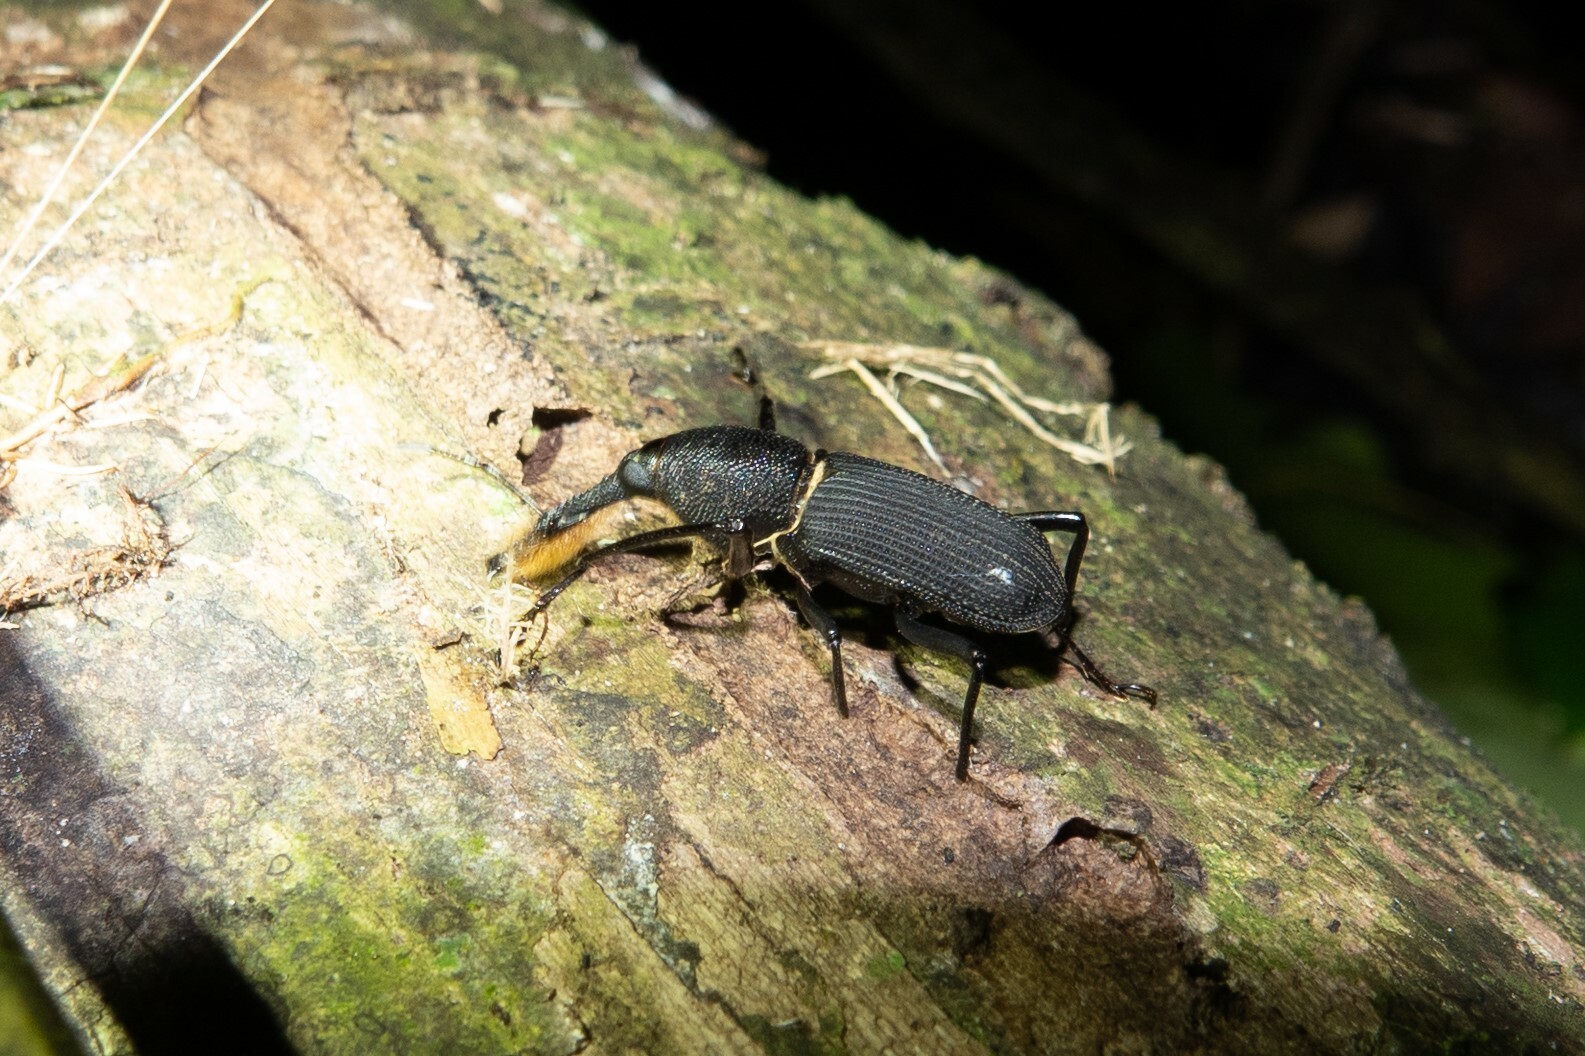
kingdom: Animalia
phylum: Arthropoda
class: Insecta
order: Coleoptera
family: Dryophthoridae
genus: Rhinostomus
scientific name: Rhinostomus barbirostris
